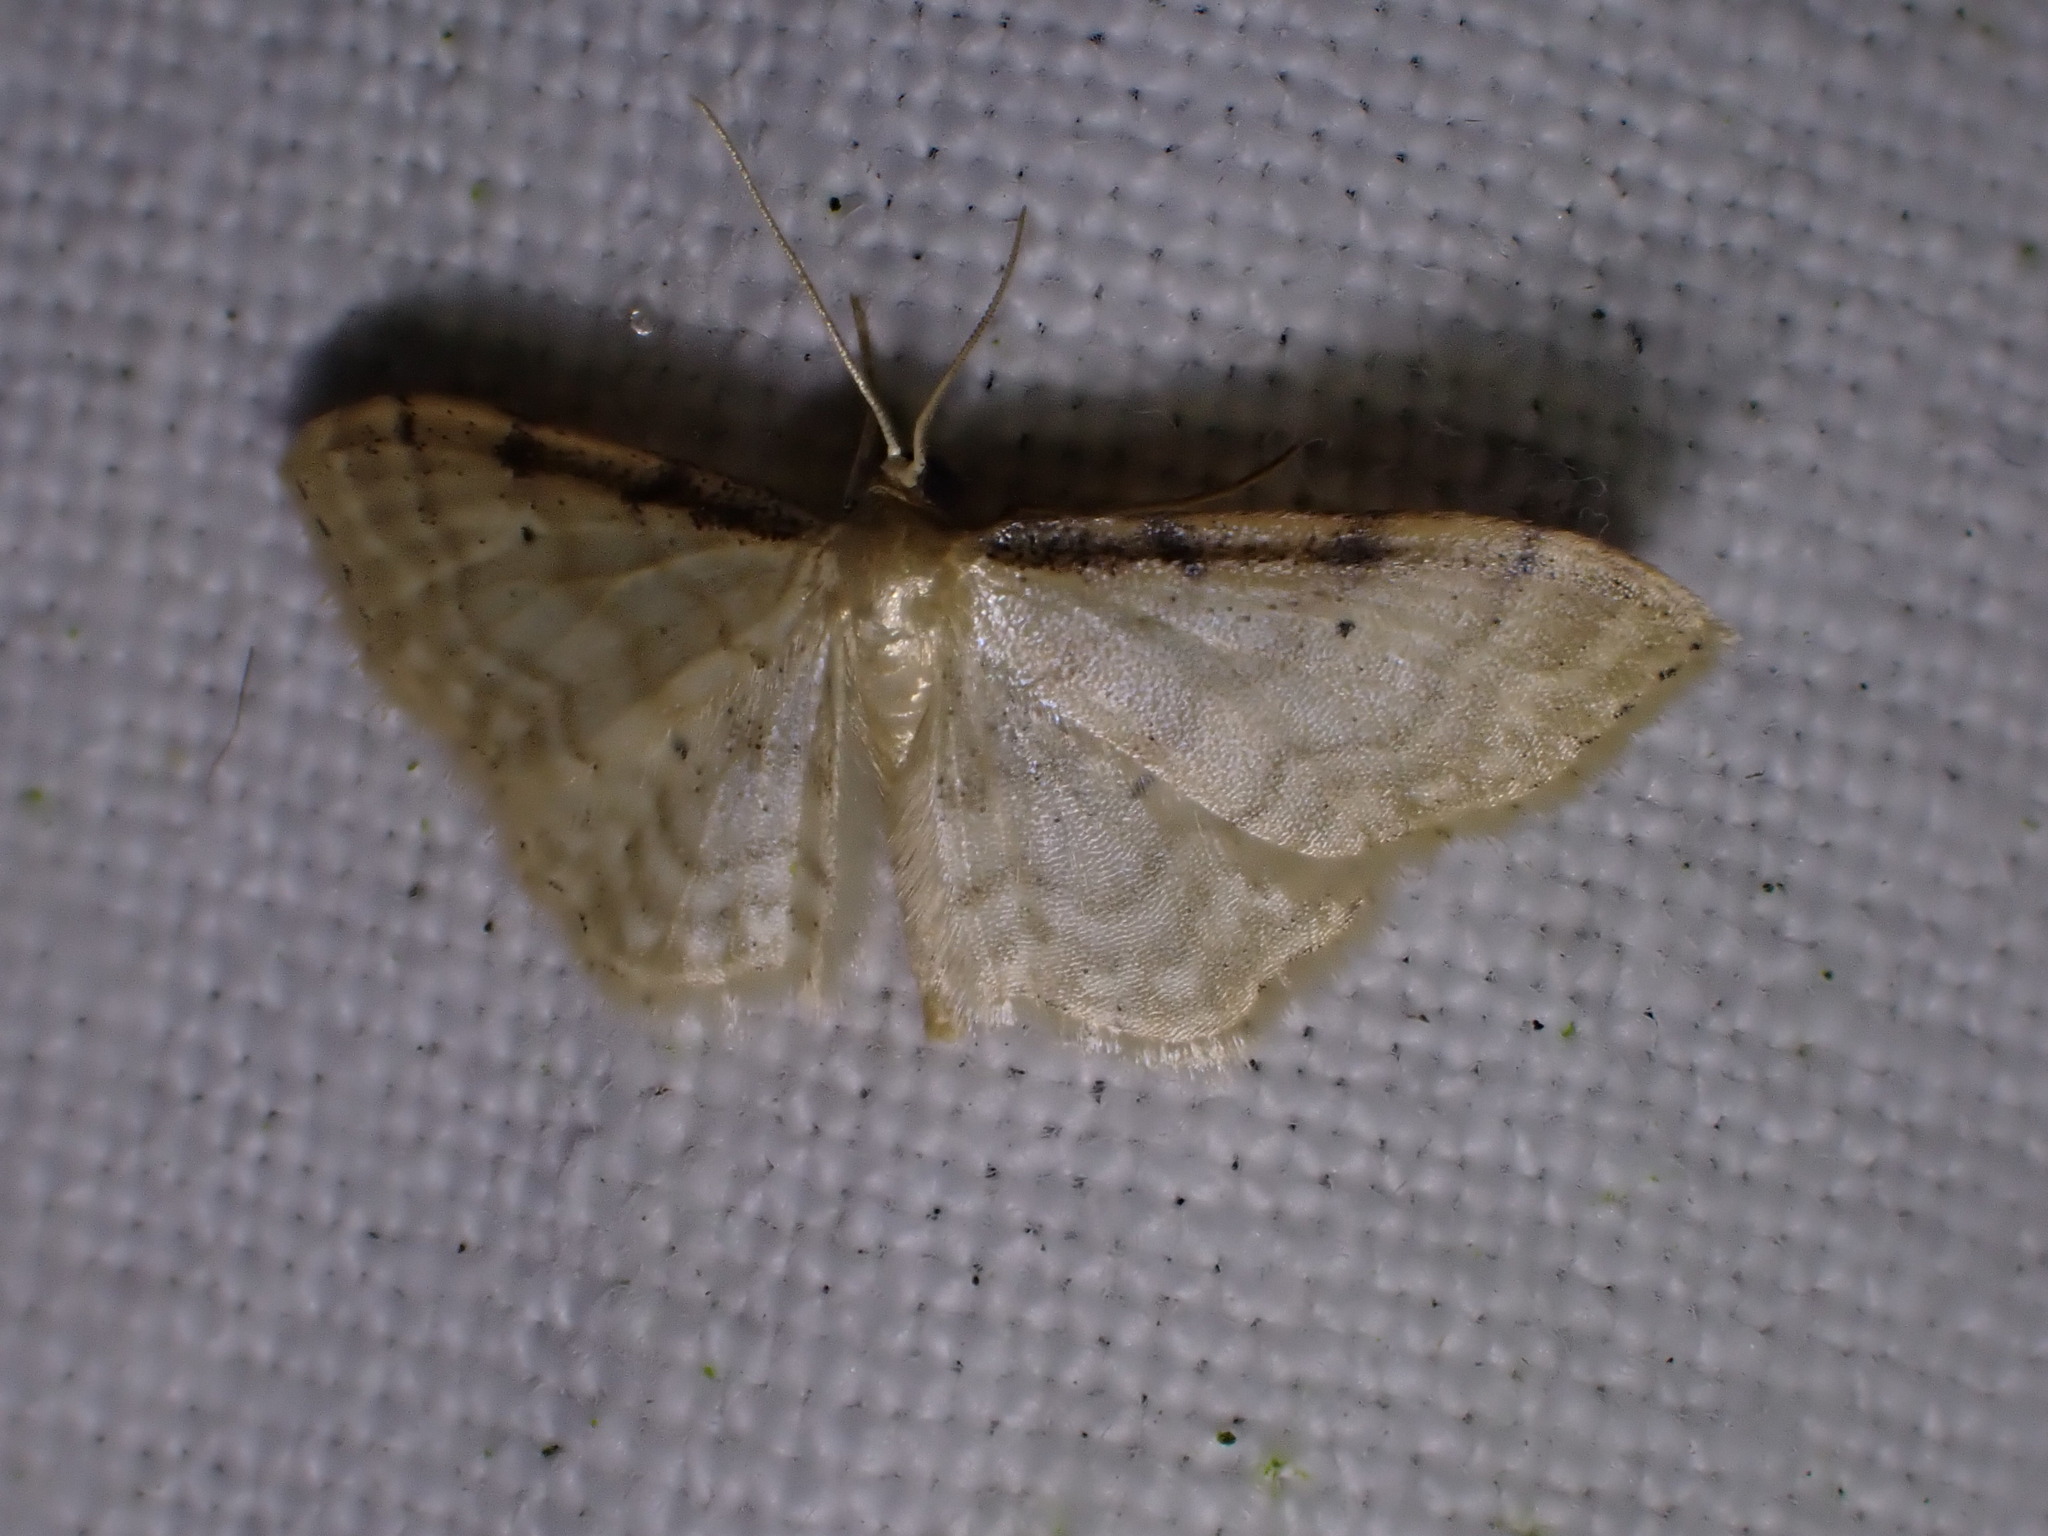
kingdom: Animalia
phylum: Arthropoda
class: Insecta
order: Lepidoptera
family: Geometridae
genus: Idaea
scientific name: Idaea fuscovenosa
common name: Dwarf cream wave
